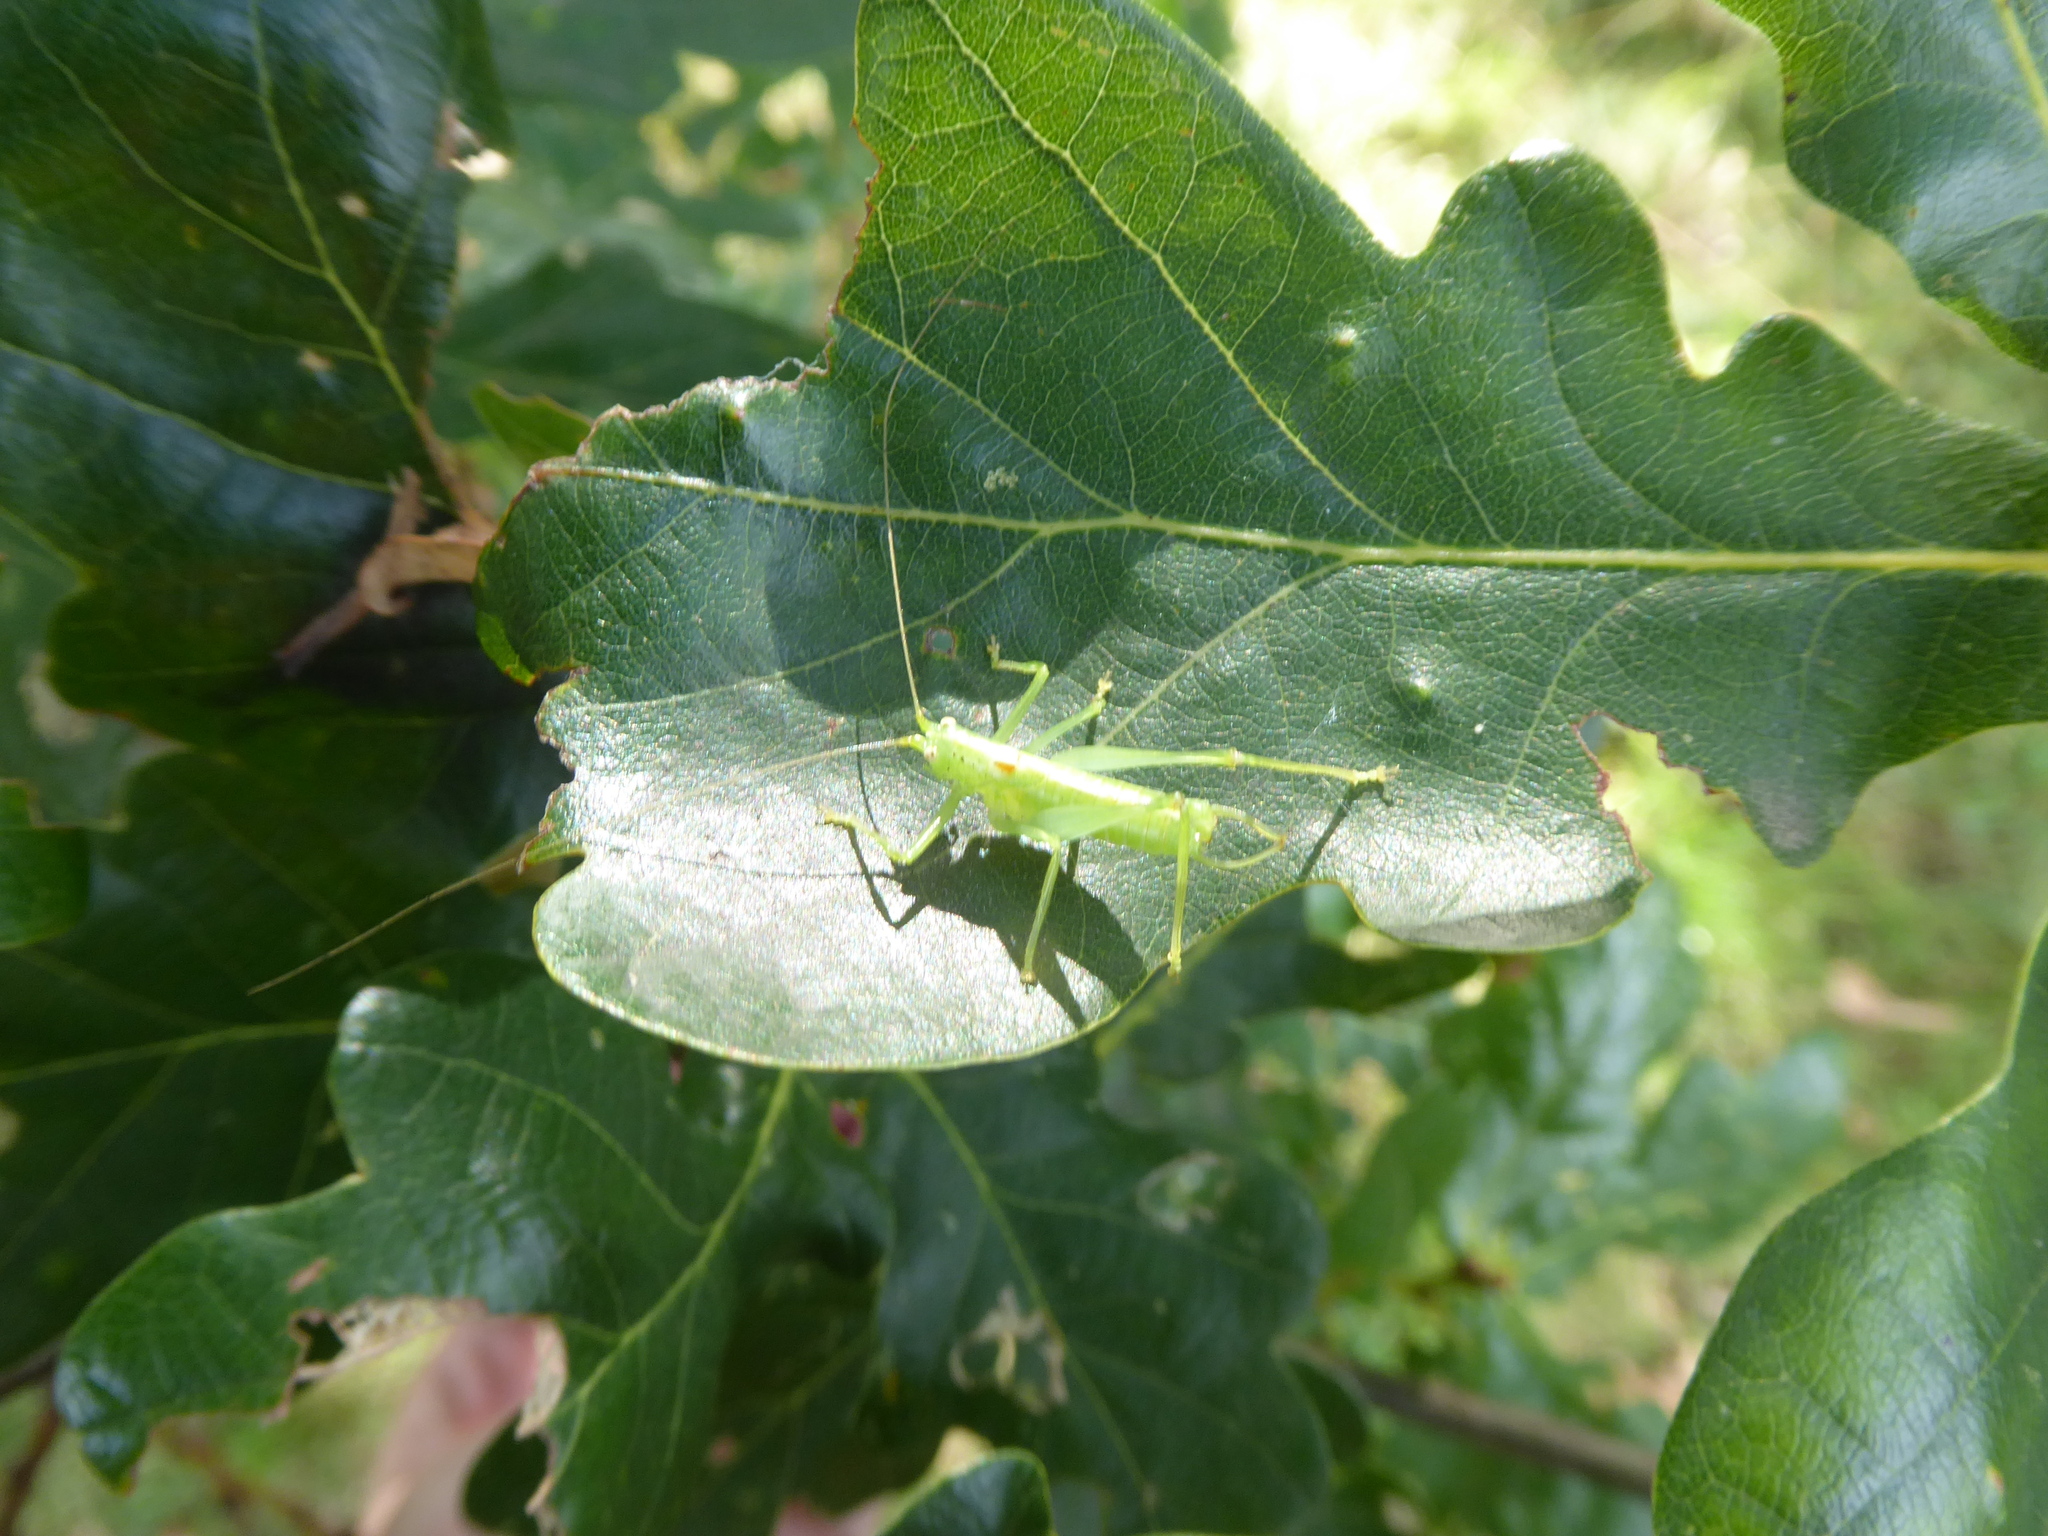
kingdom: Animalia
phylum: Arthropoda
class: Insecta
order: Orthoptera
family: Tettigoniidae
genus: Meconema
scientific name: Meconema meridionale
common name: Southern oak bush-cricket
